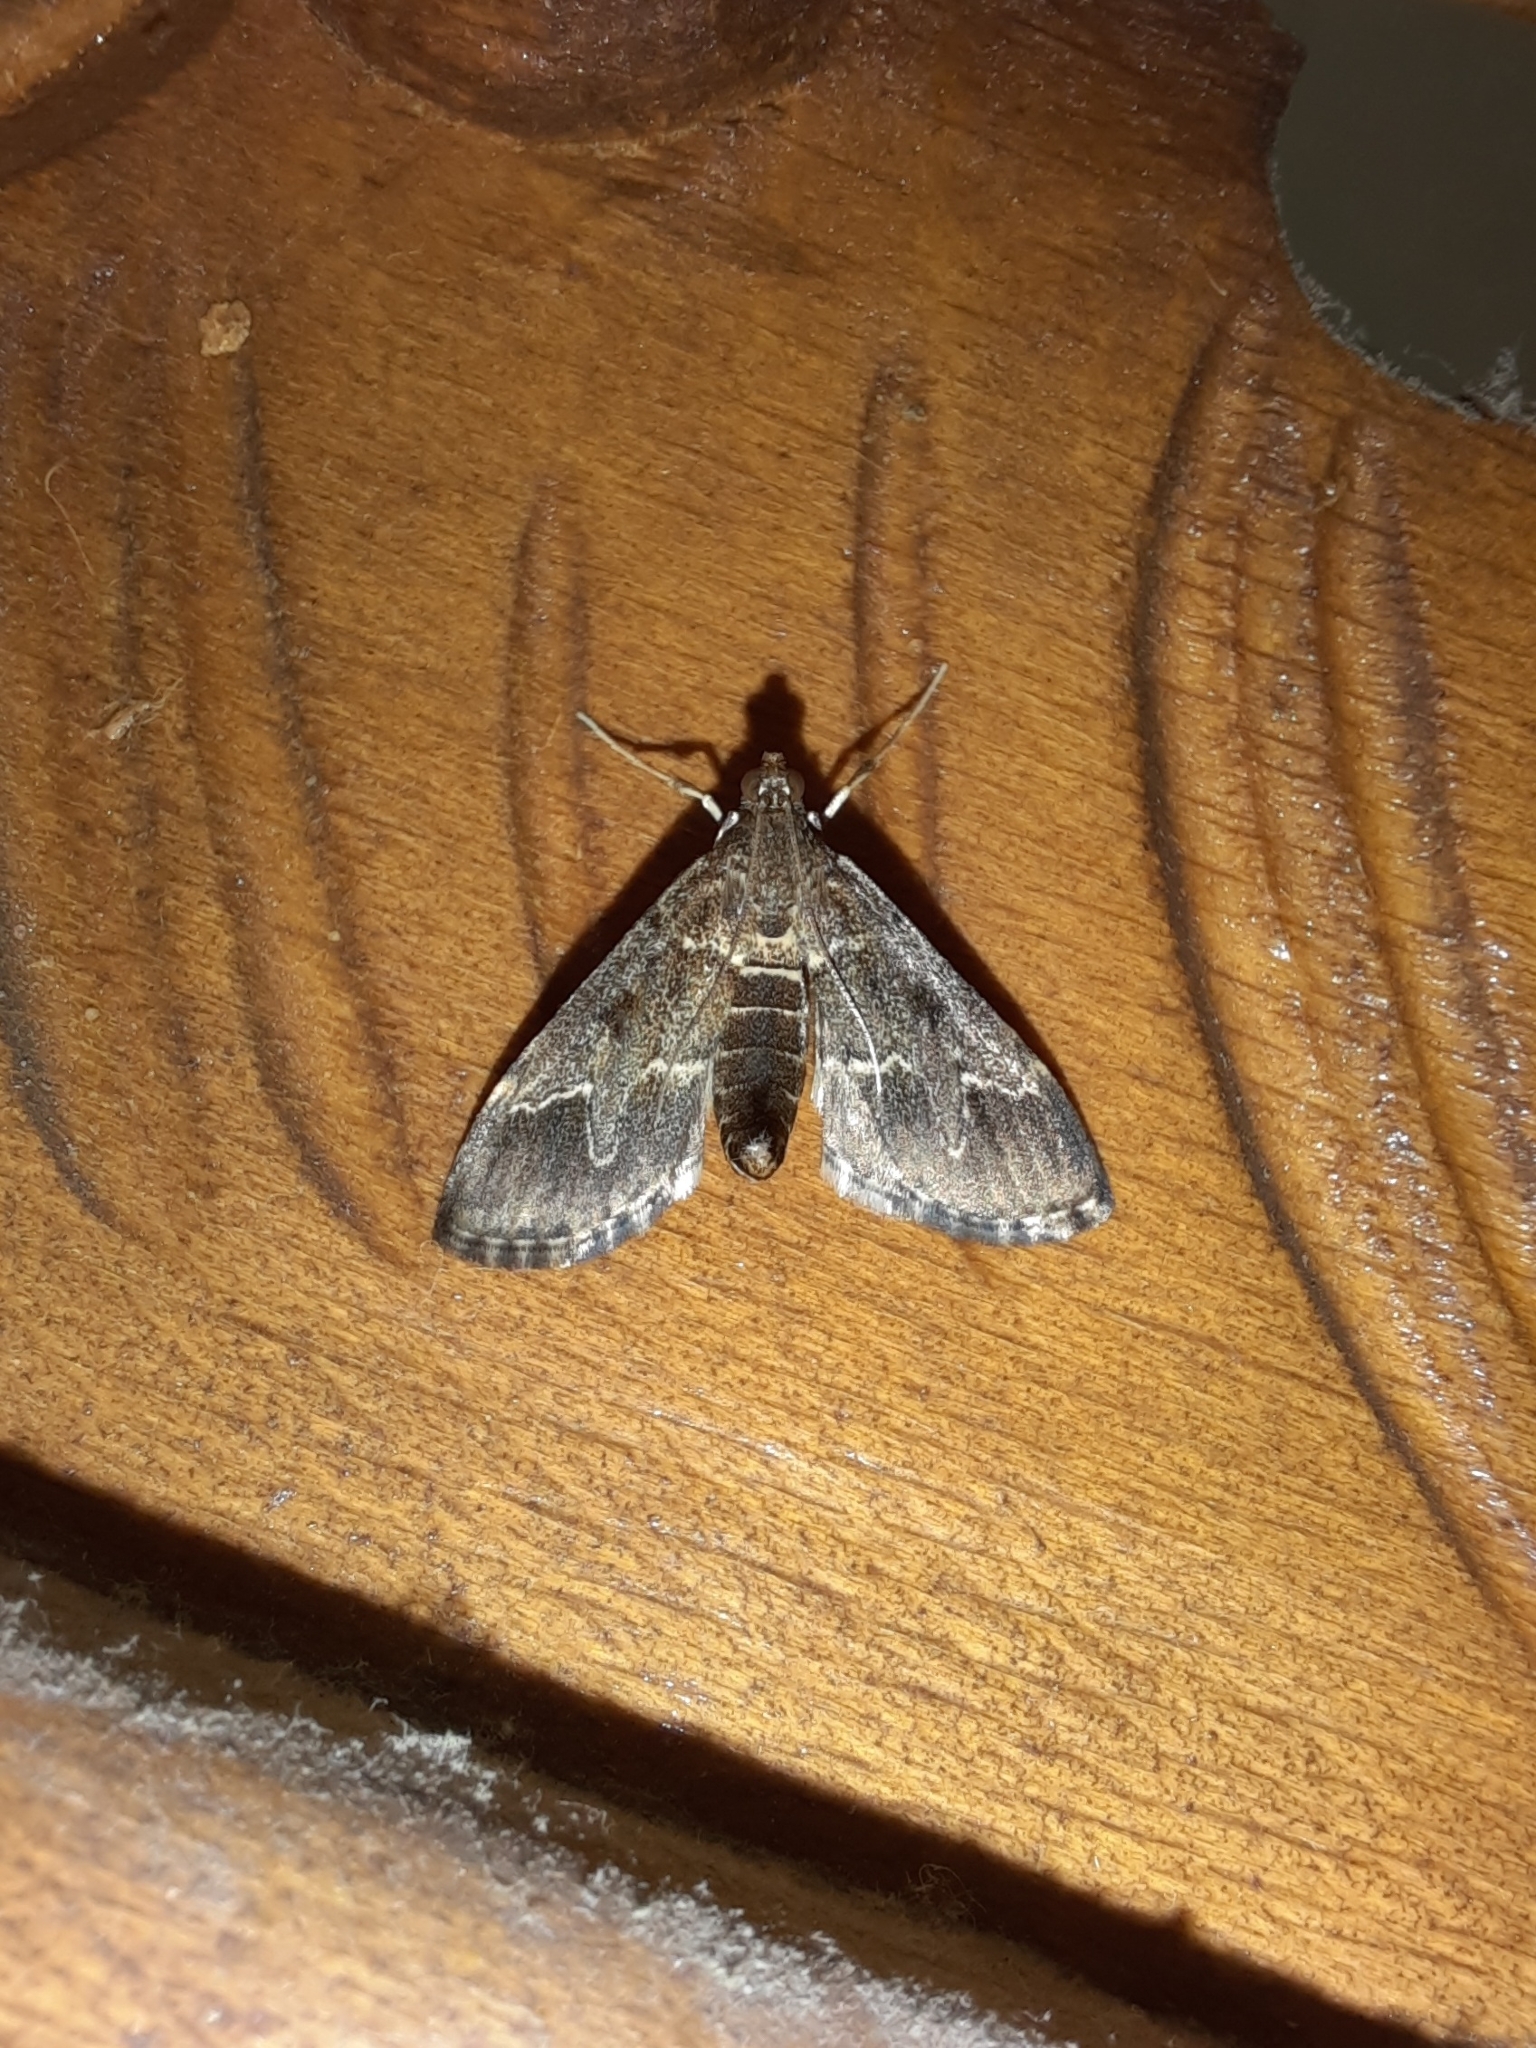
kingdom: Animalia
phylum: Arthropoda
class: Insecta
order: Lepidoptera
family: Crambidae
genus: Duponchelia
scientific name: Duponchelia fovealis
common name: Crambid moth
